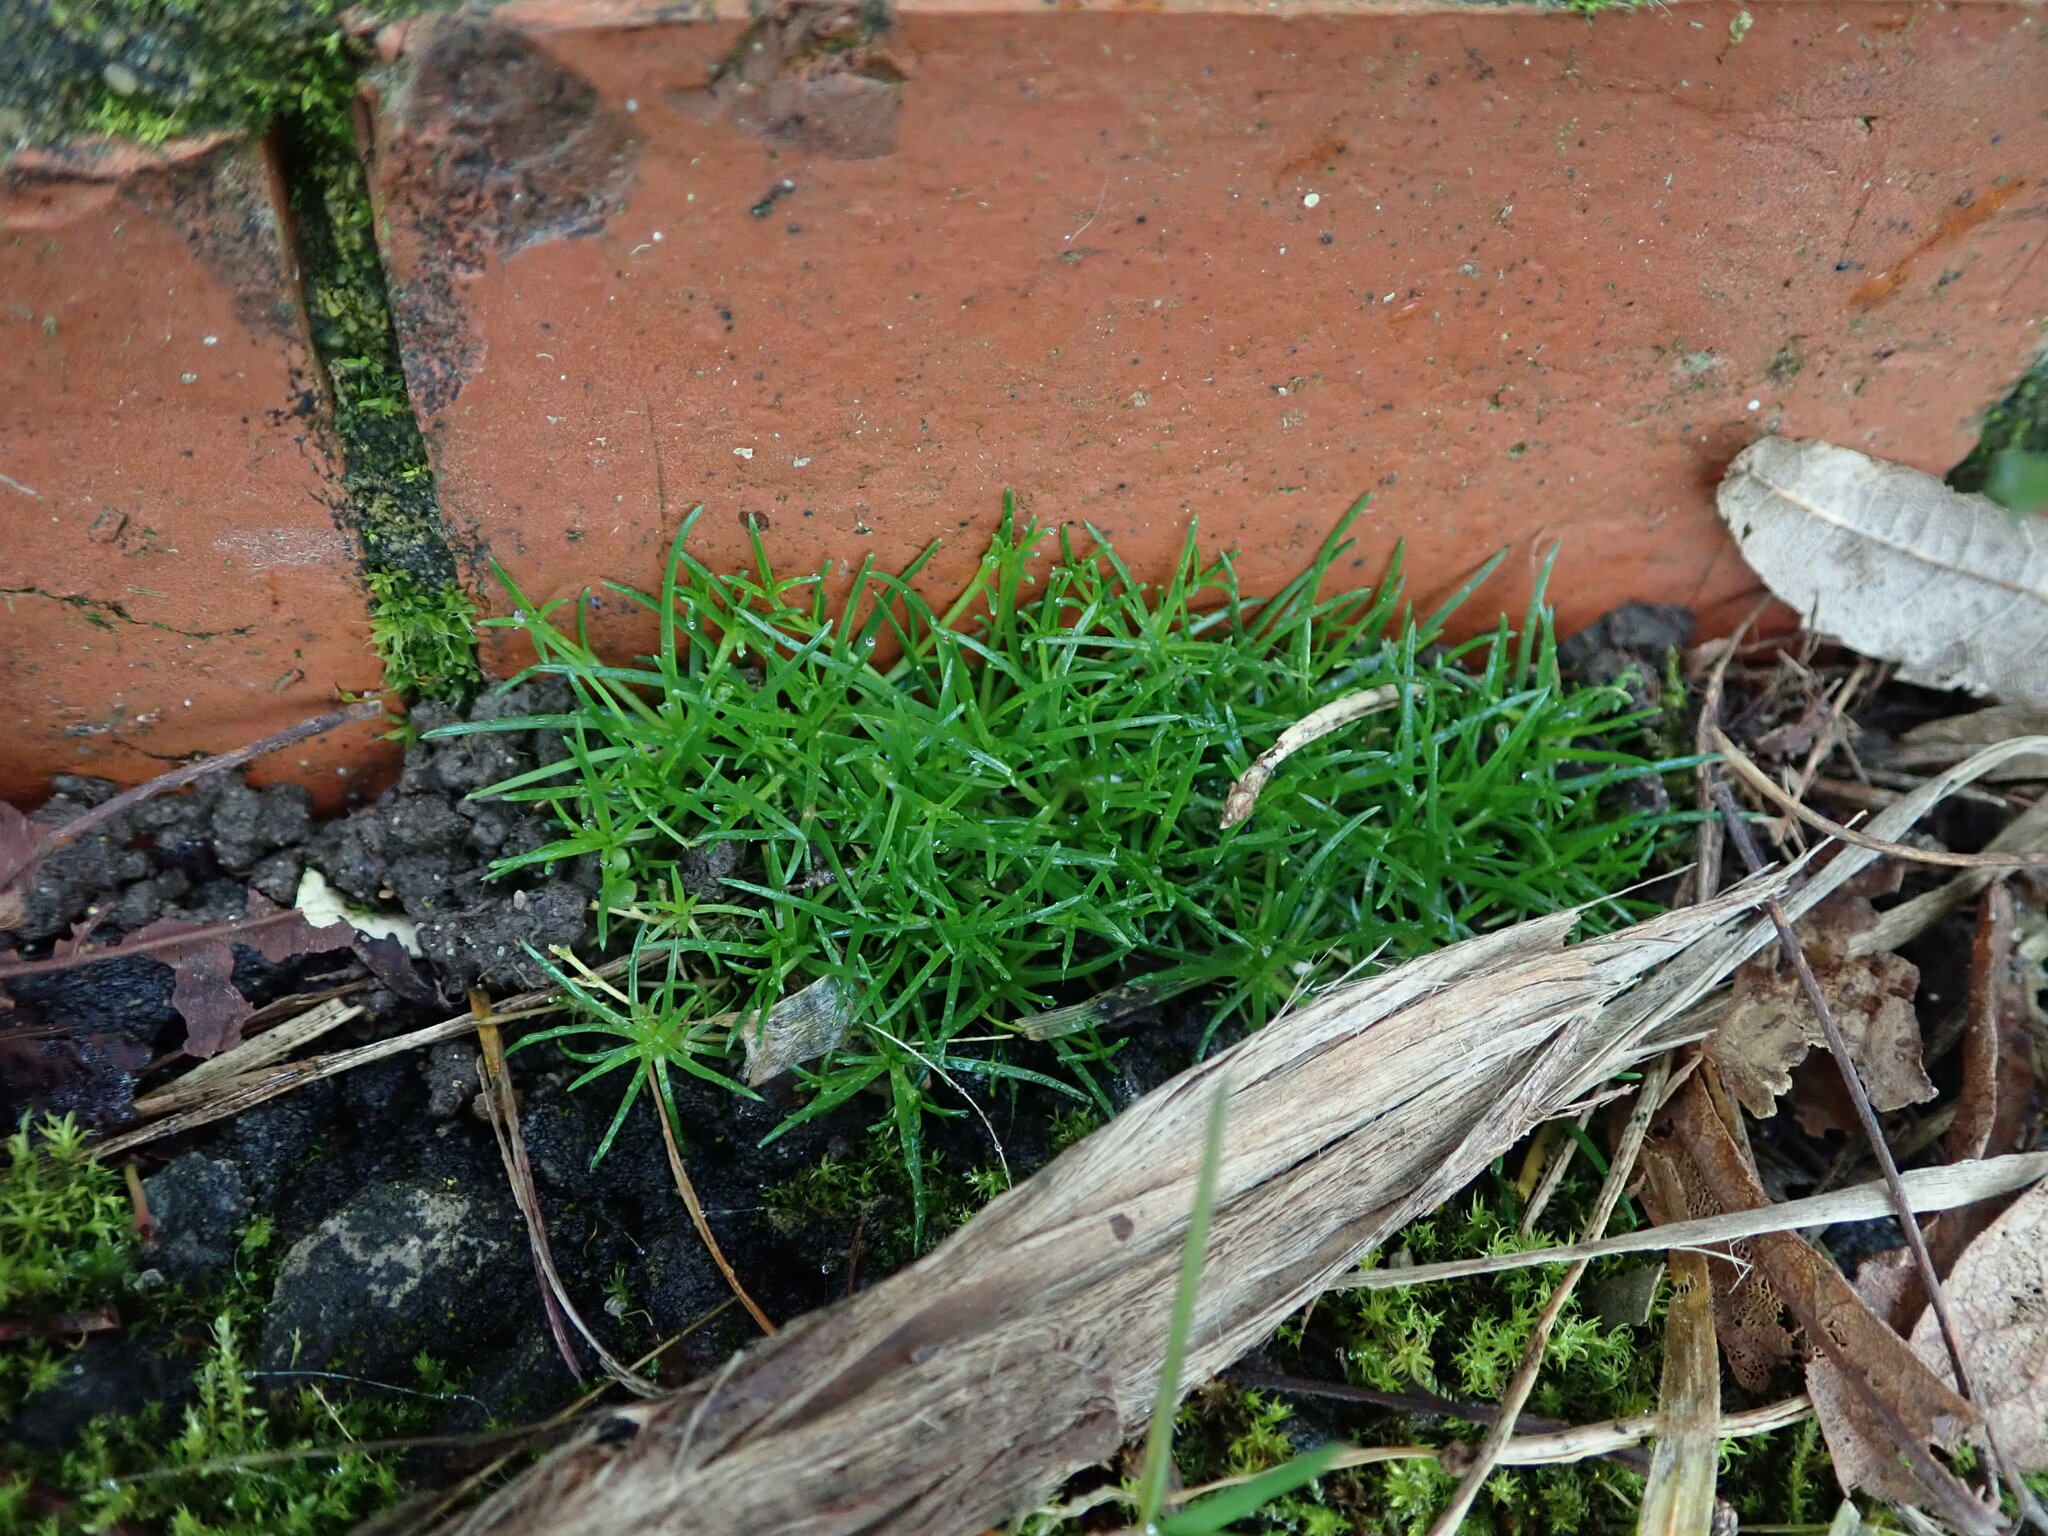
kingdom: Plantae
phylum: Tracheophyta
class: Magnoliopsida
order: Caryophyllales
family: Caryophyllaceae
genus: Sagina
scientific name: Sagina procumbens
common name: Procumbent pearlwort
